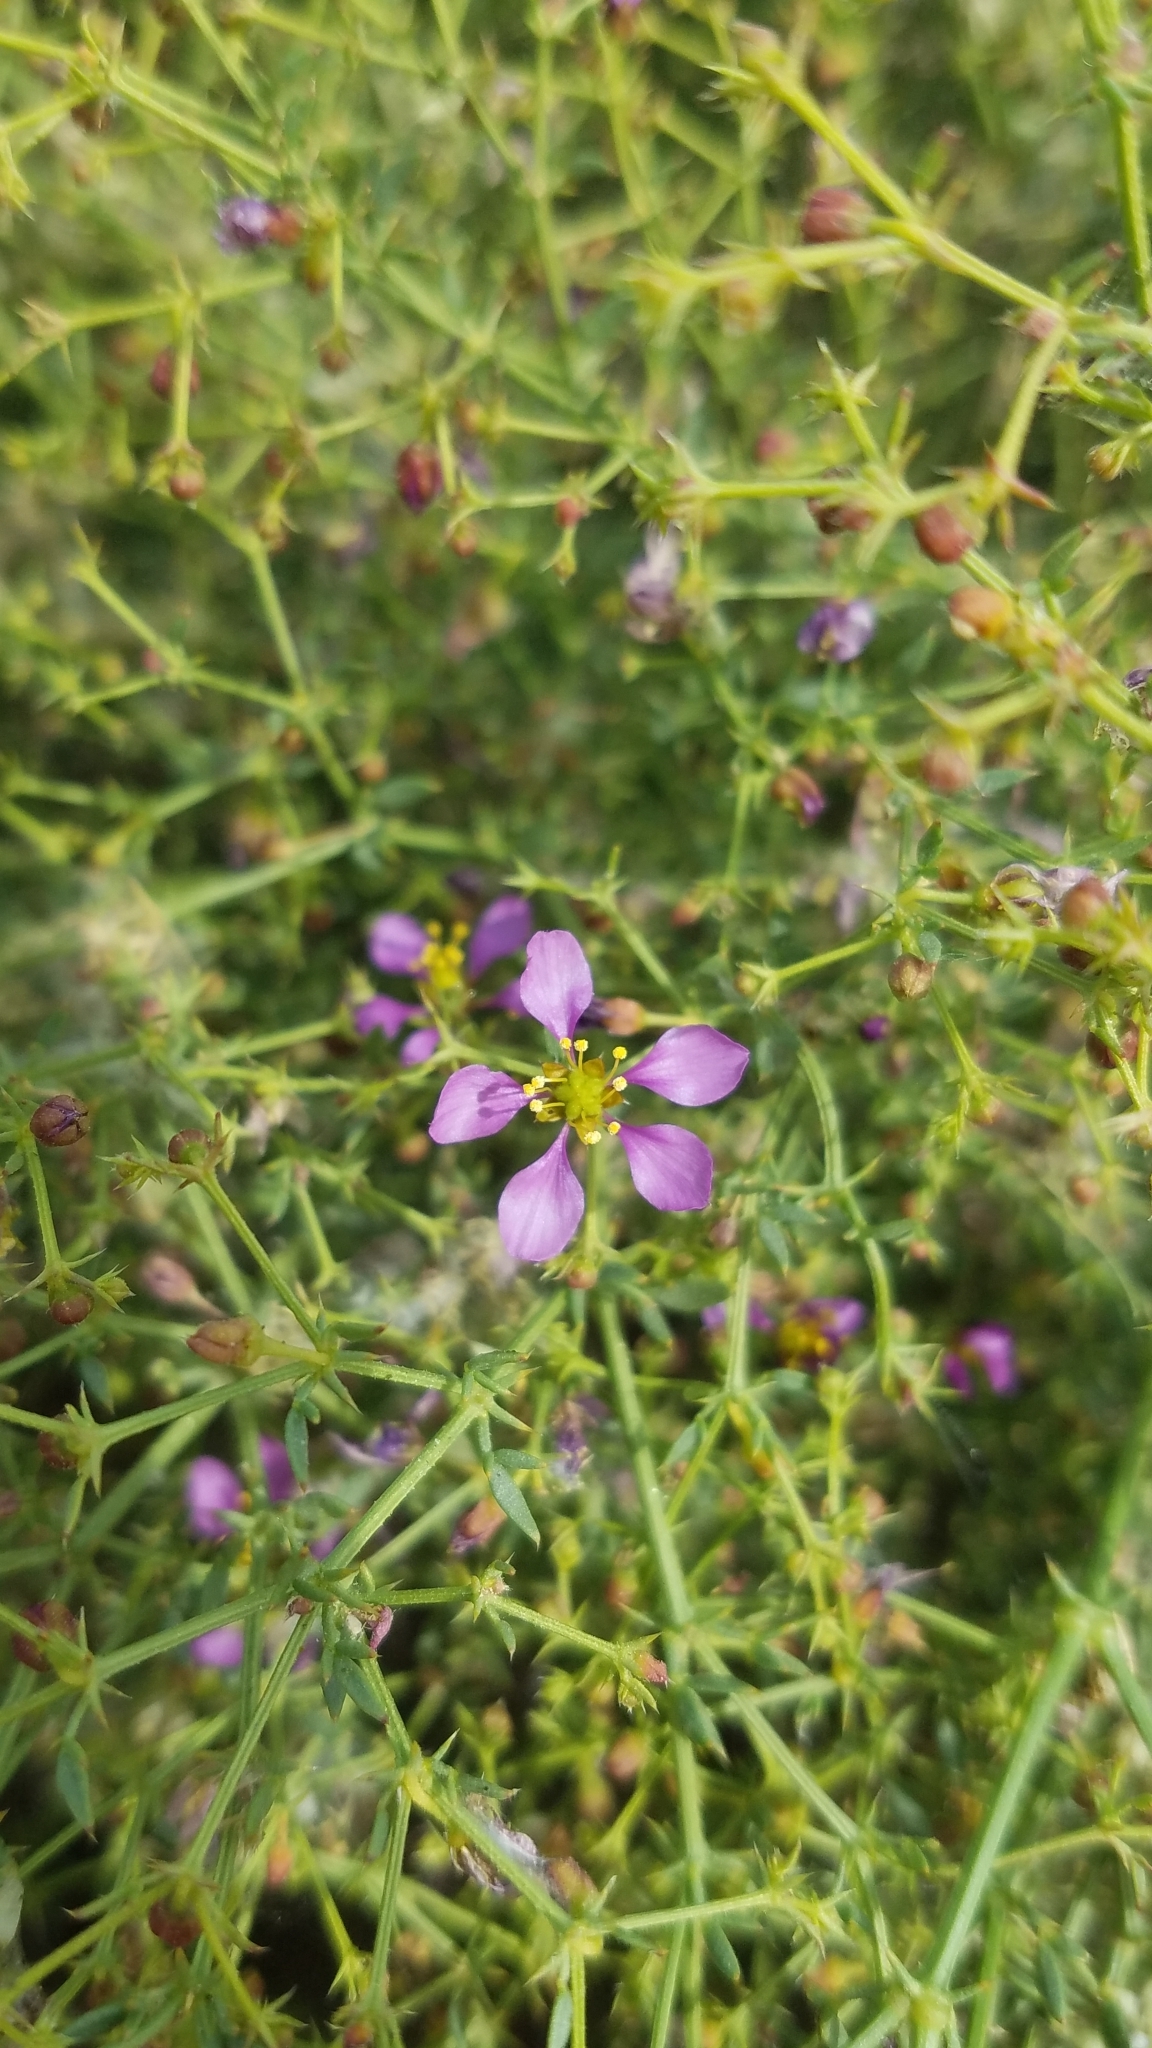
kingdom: Plantae
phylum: Tracheophyta
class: Magnoliopsida
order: Zygophyllales
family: Zygophyllaceae
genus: Fagonia
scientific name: Fagonia laevis
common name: California fagonbush
